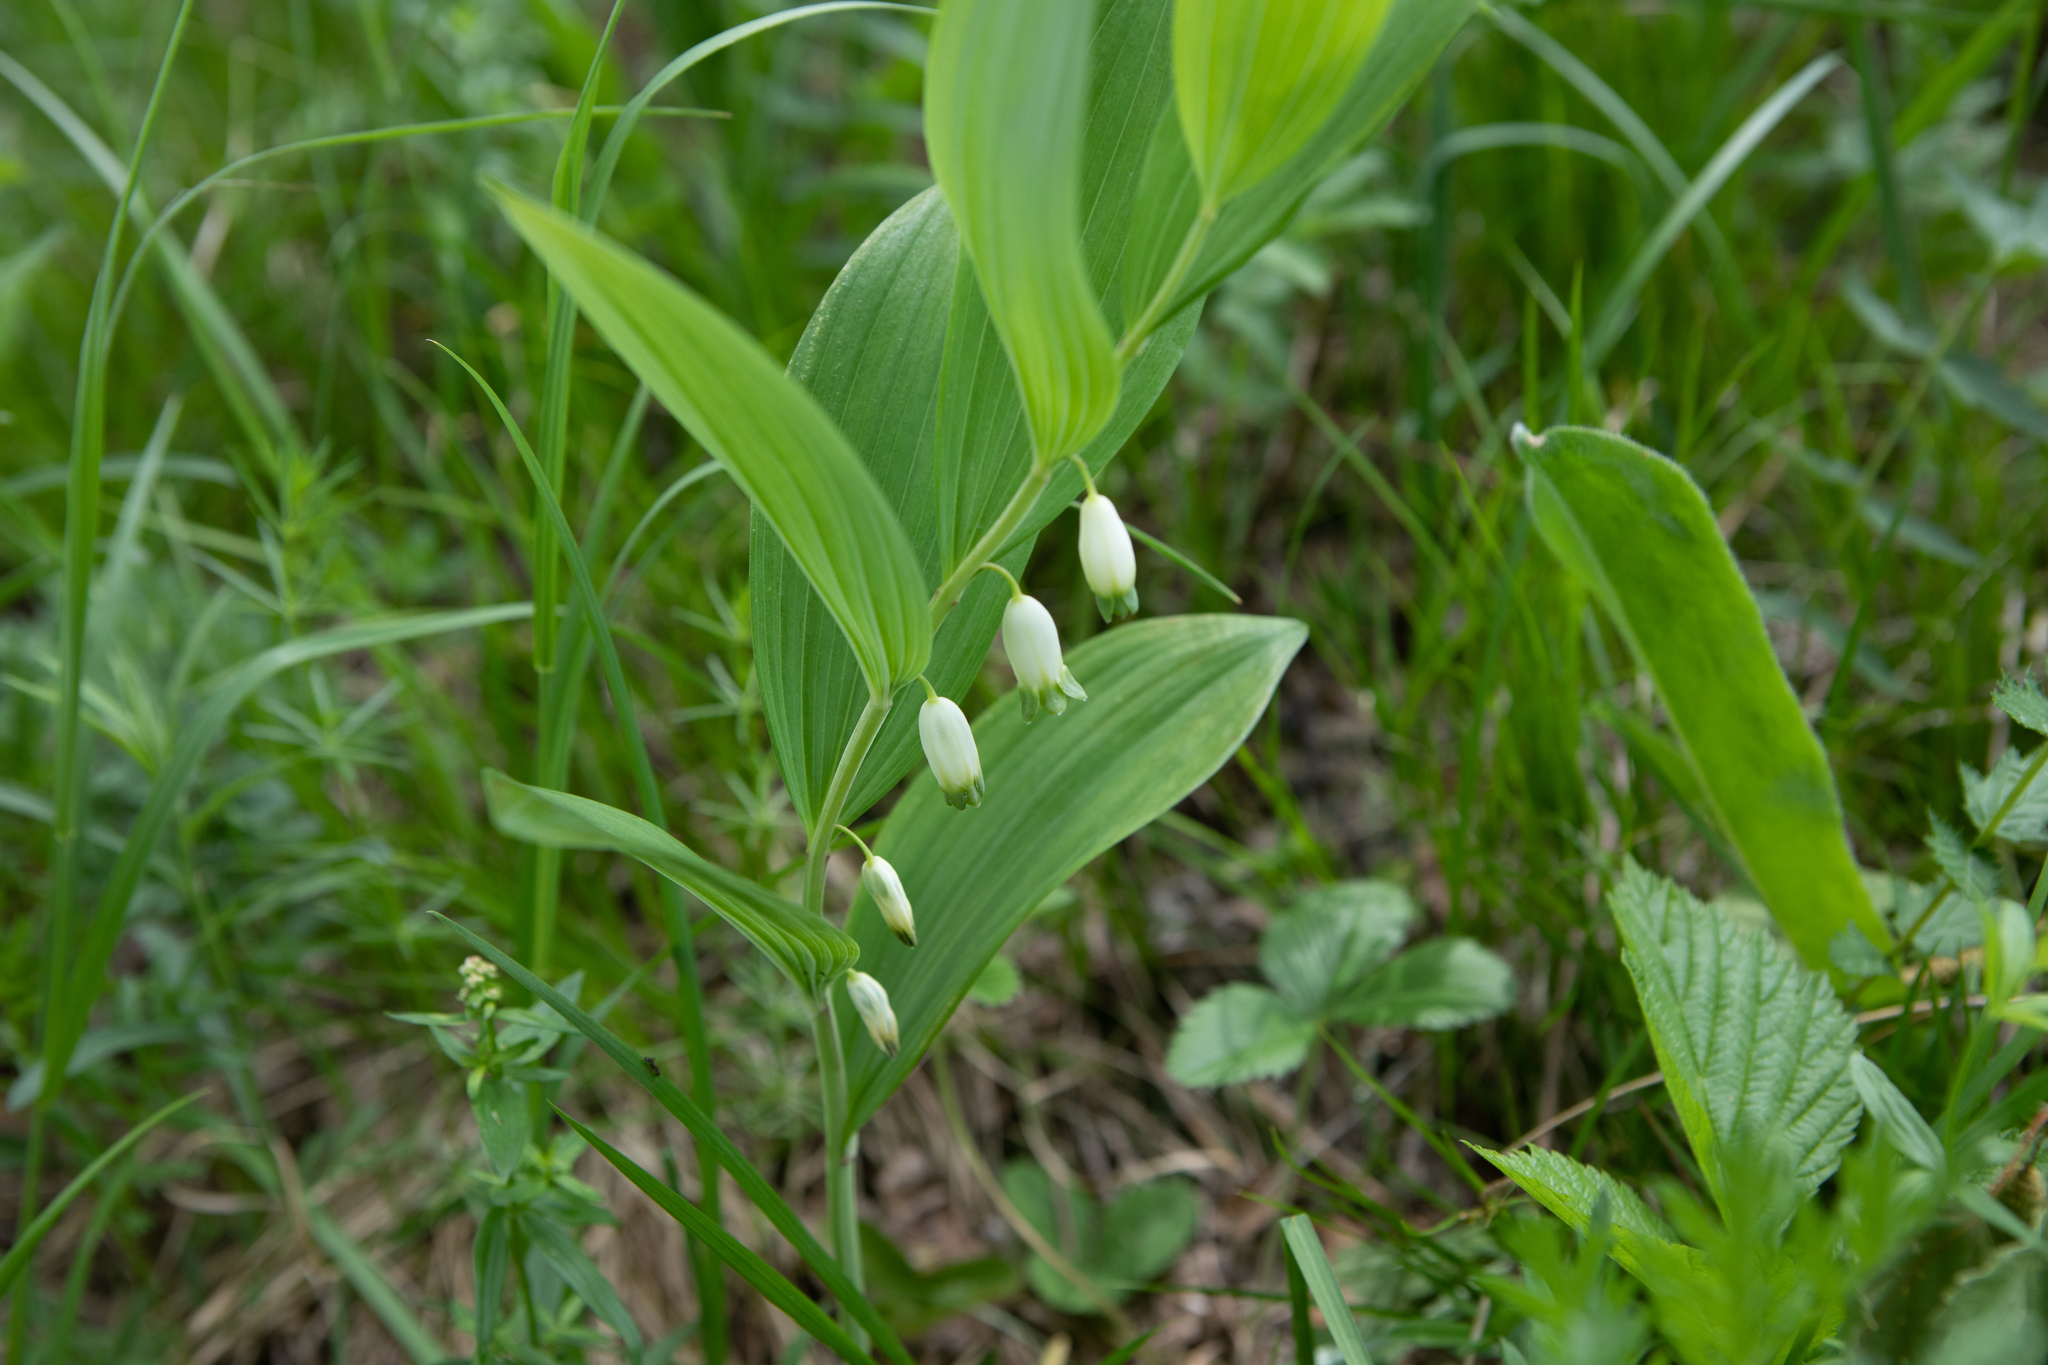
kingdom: Plantae
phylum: Tracheophyta
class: Liliopsida
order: Asparagales
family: Asparagaceae
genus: Polygonatum
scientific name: Polygonatum odoratum
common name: Angular solomon's-seal
